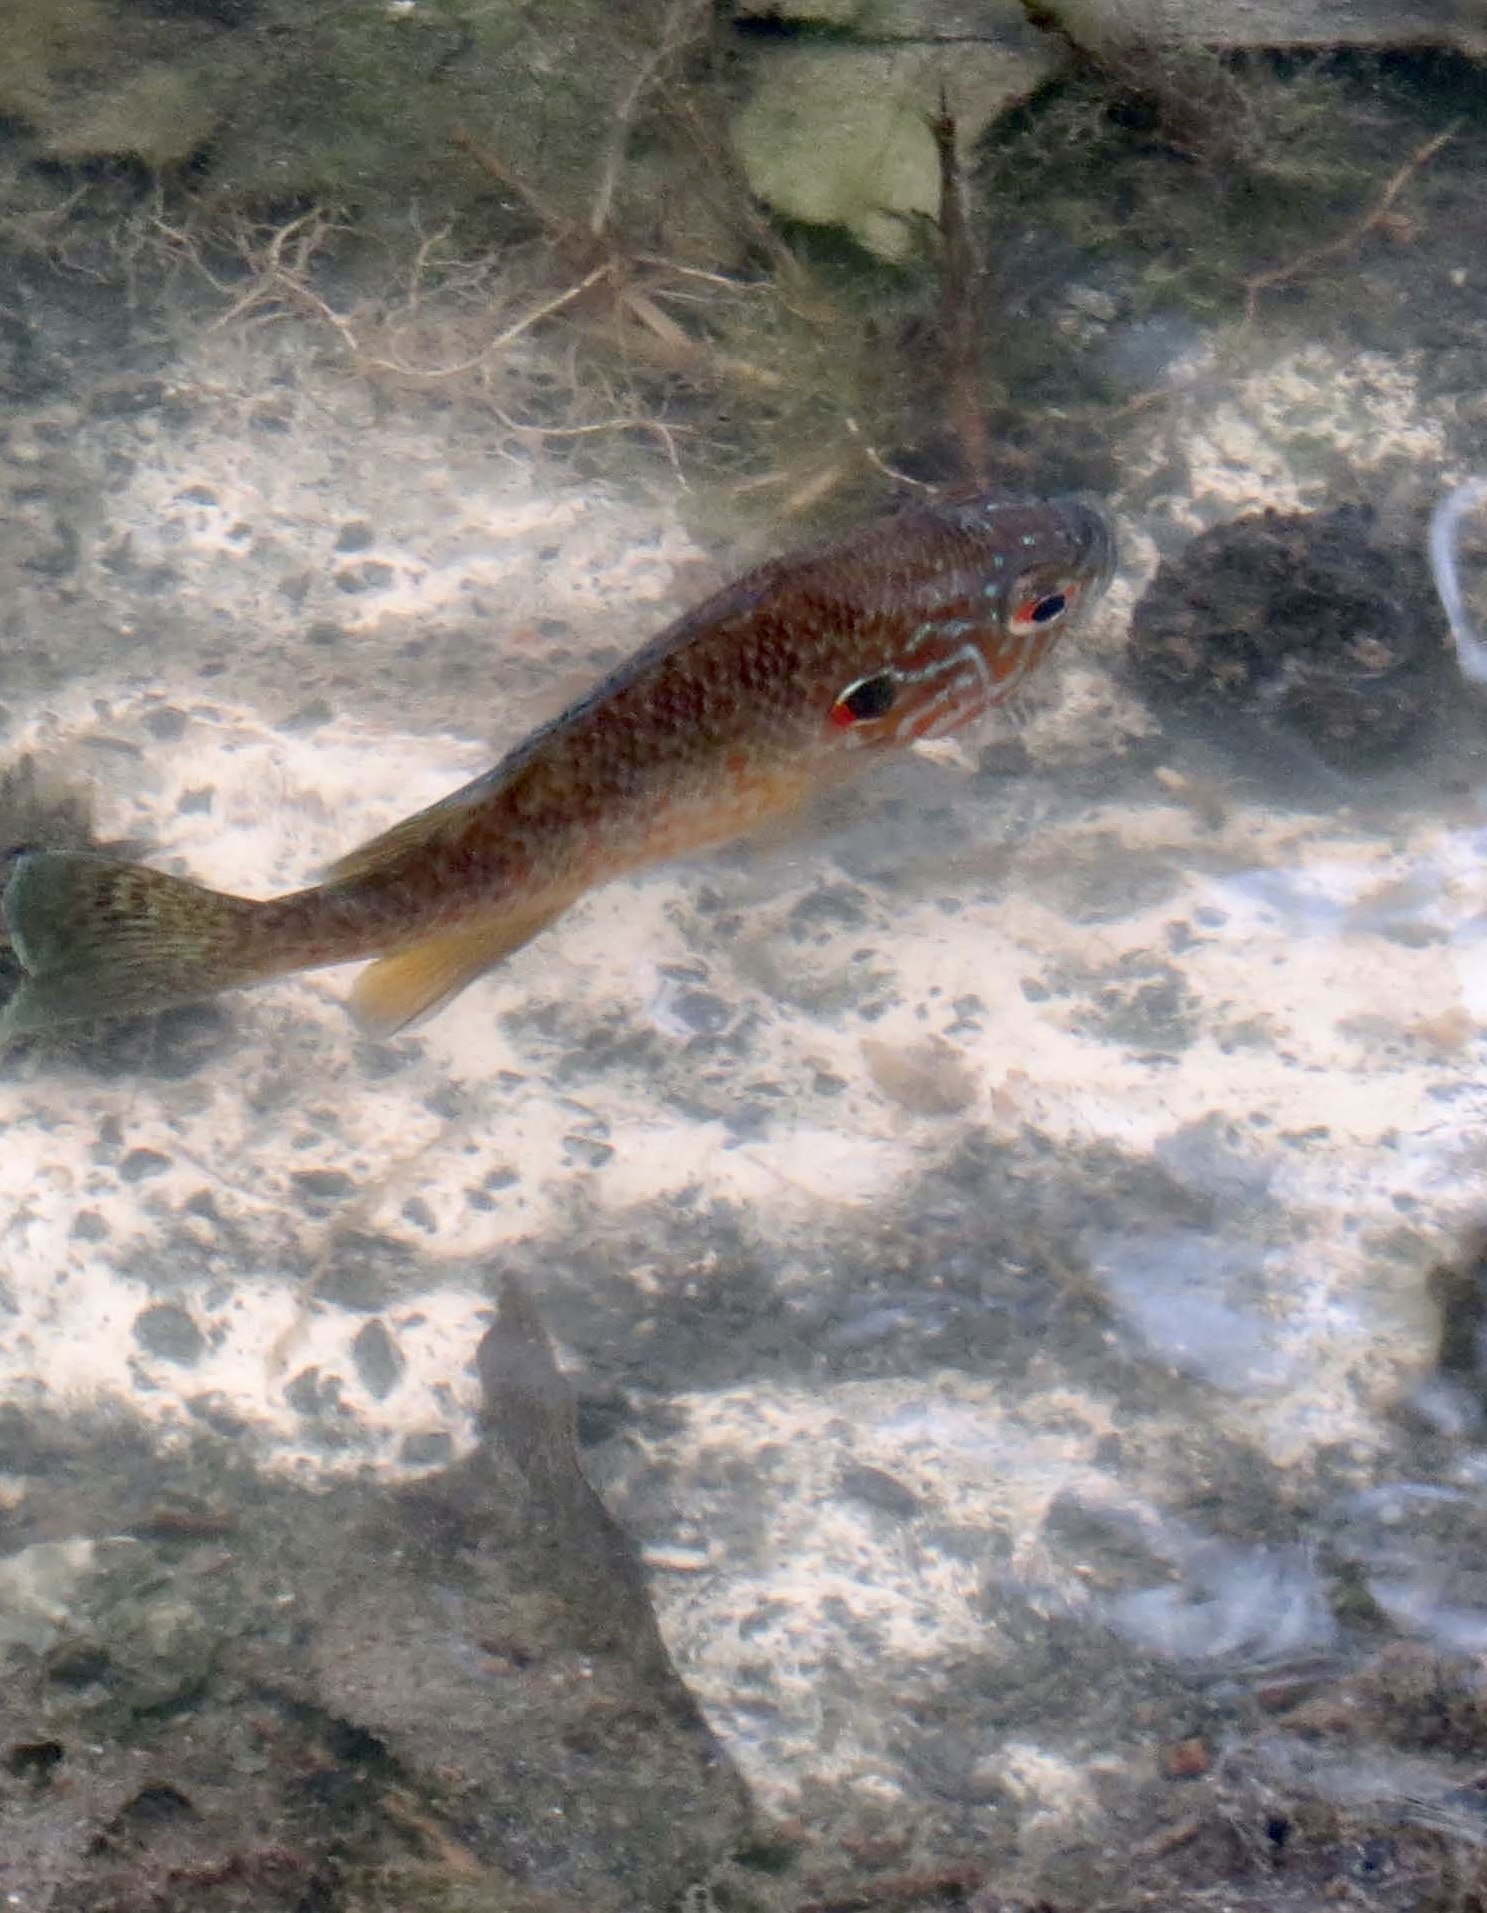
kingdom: Animalia
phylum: Chordata
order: Perciformes
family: Centrarchidae
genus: Lepomis
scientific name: Lepomis gibbosus
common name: Pumpkinseed
